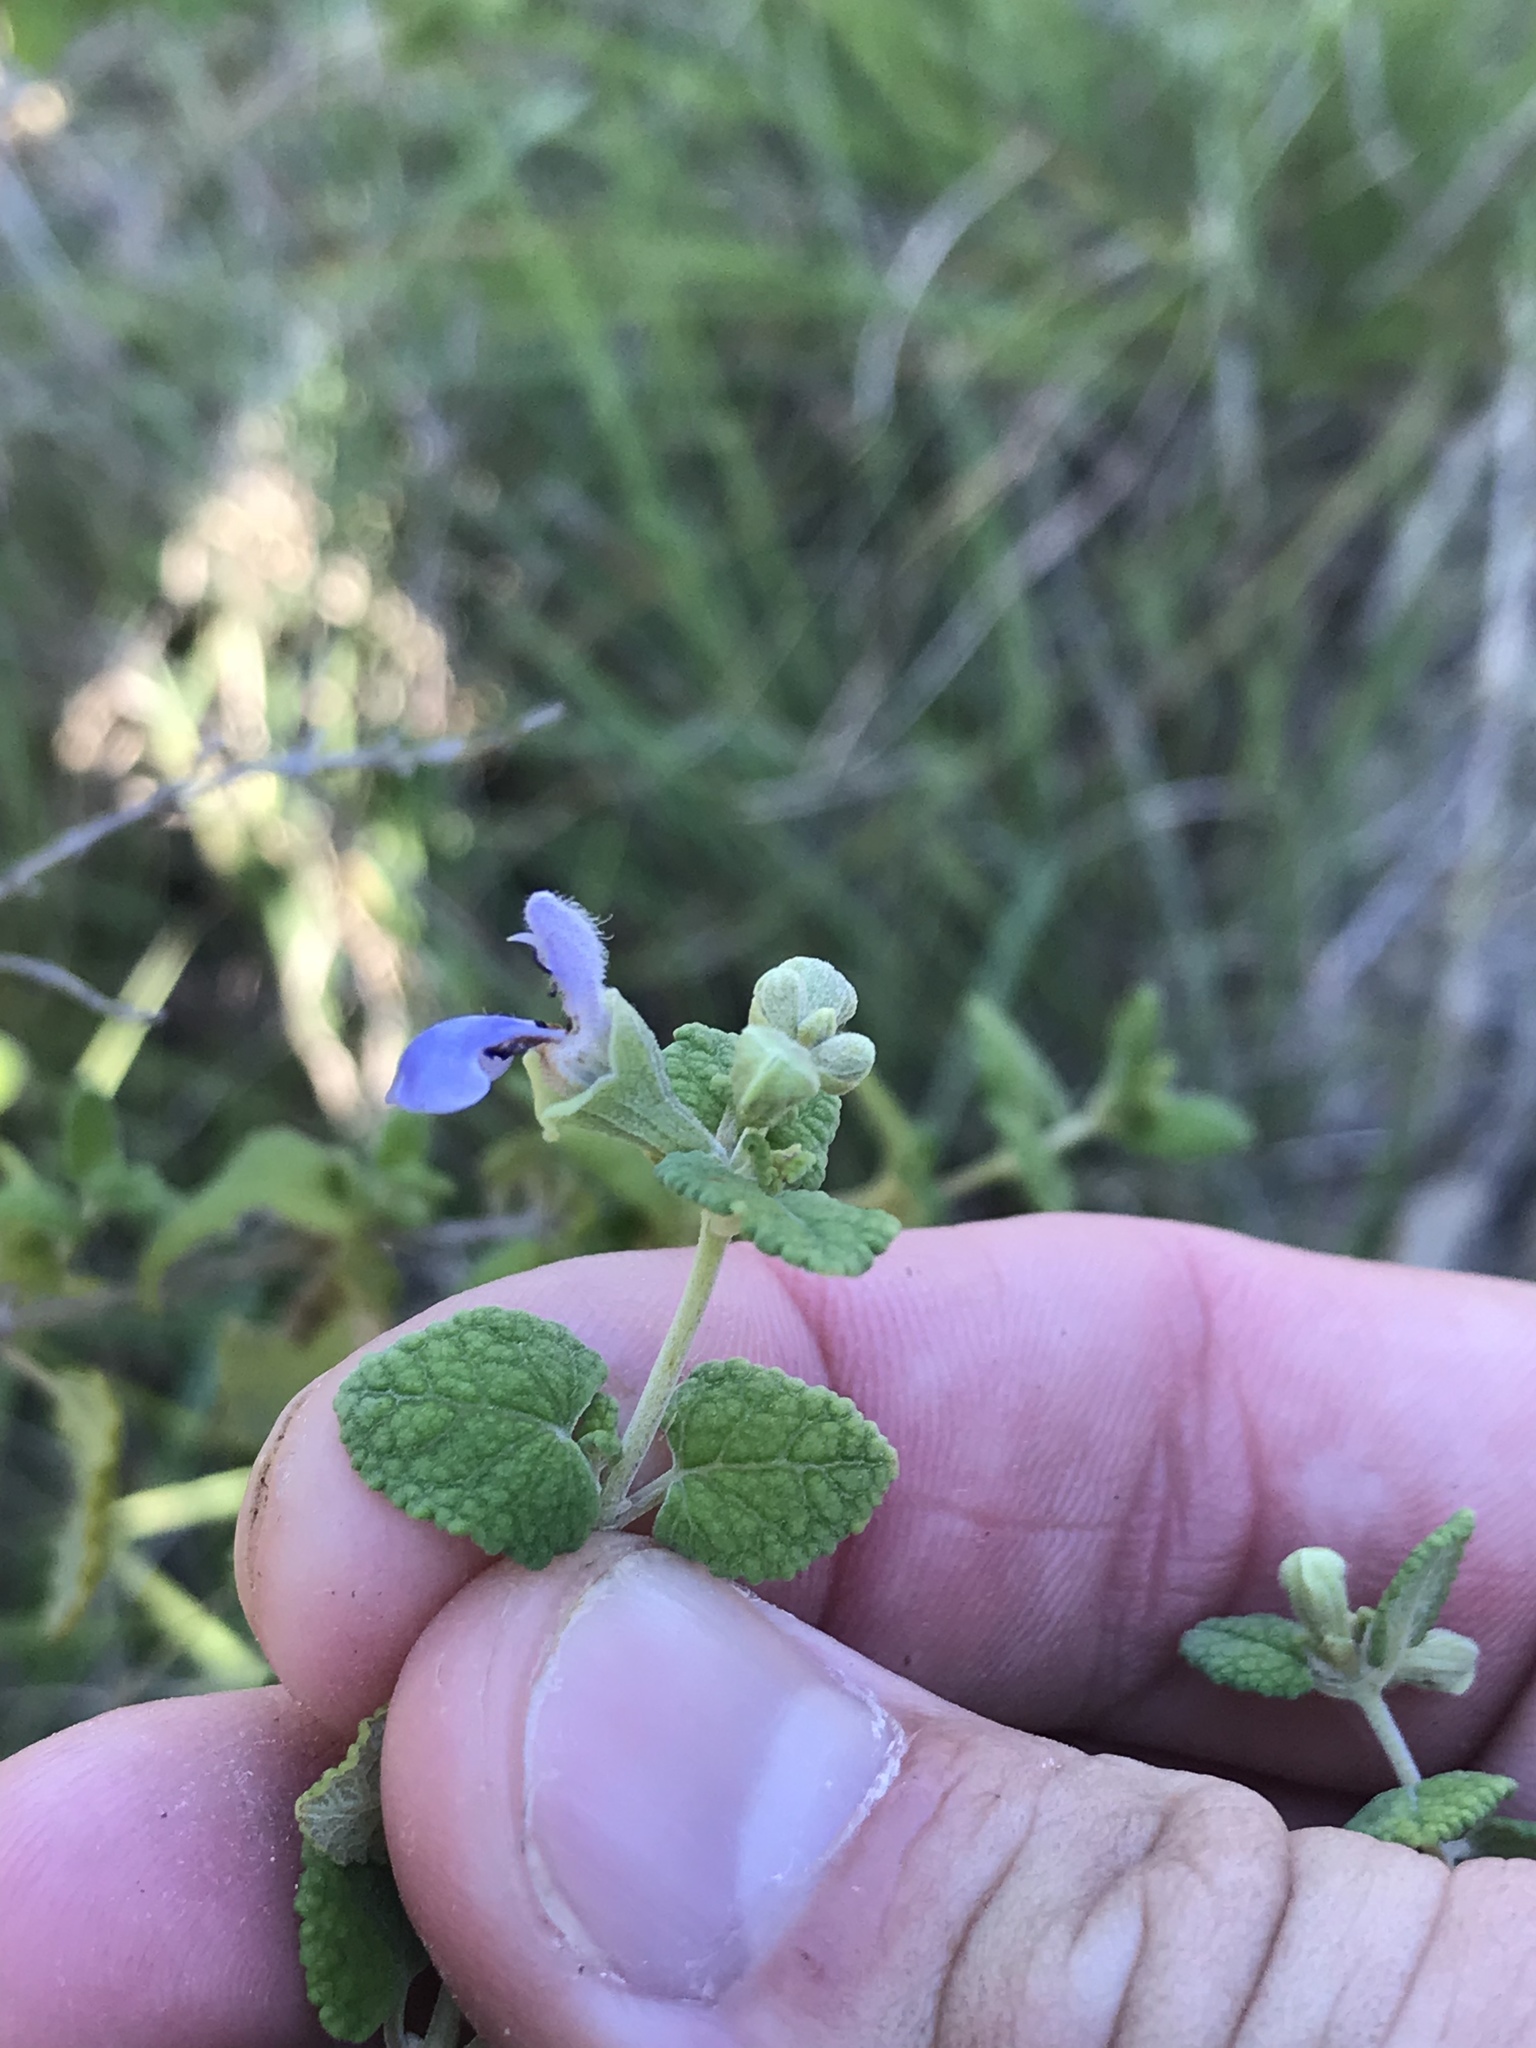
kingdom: Plantae
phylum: Tracheophyta
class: Magnoliopsida
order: Lamiales
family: Lamiaceae
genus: Salvia
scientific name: Salvia ballotiflora
